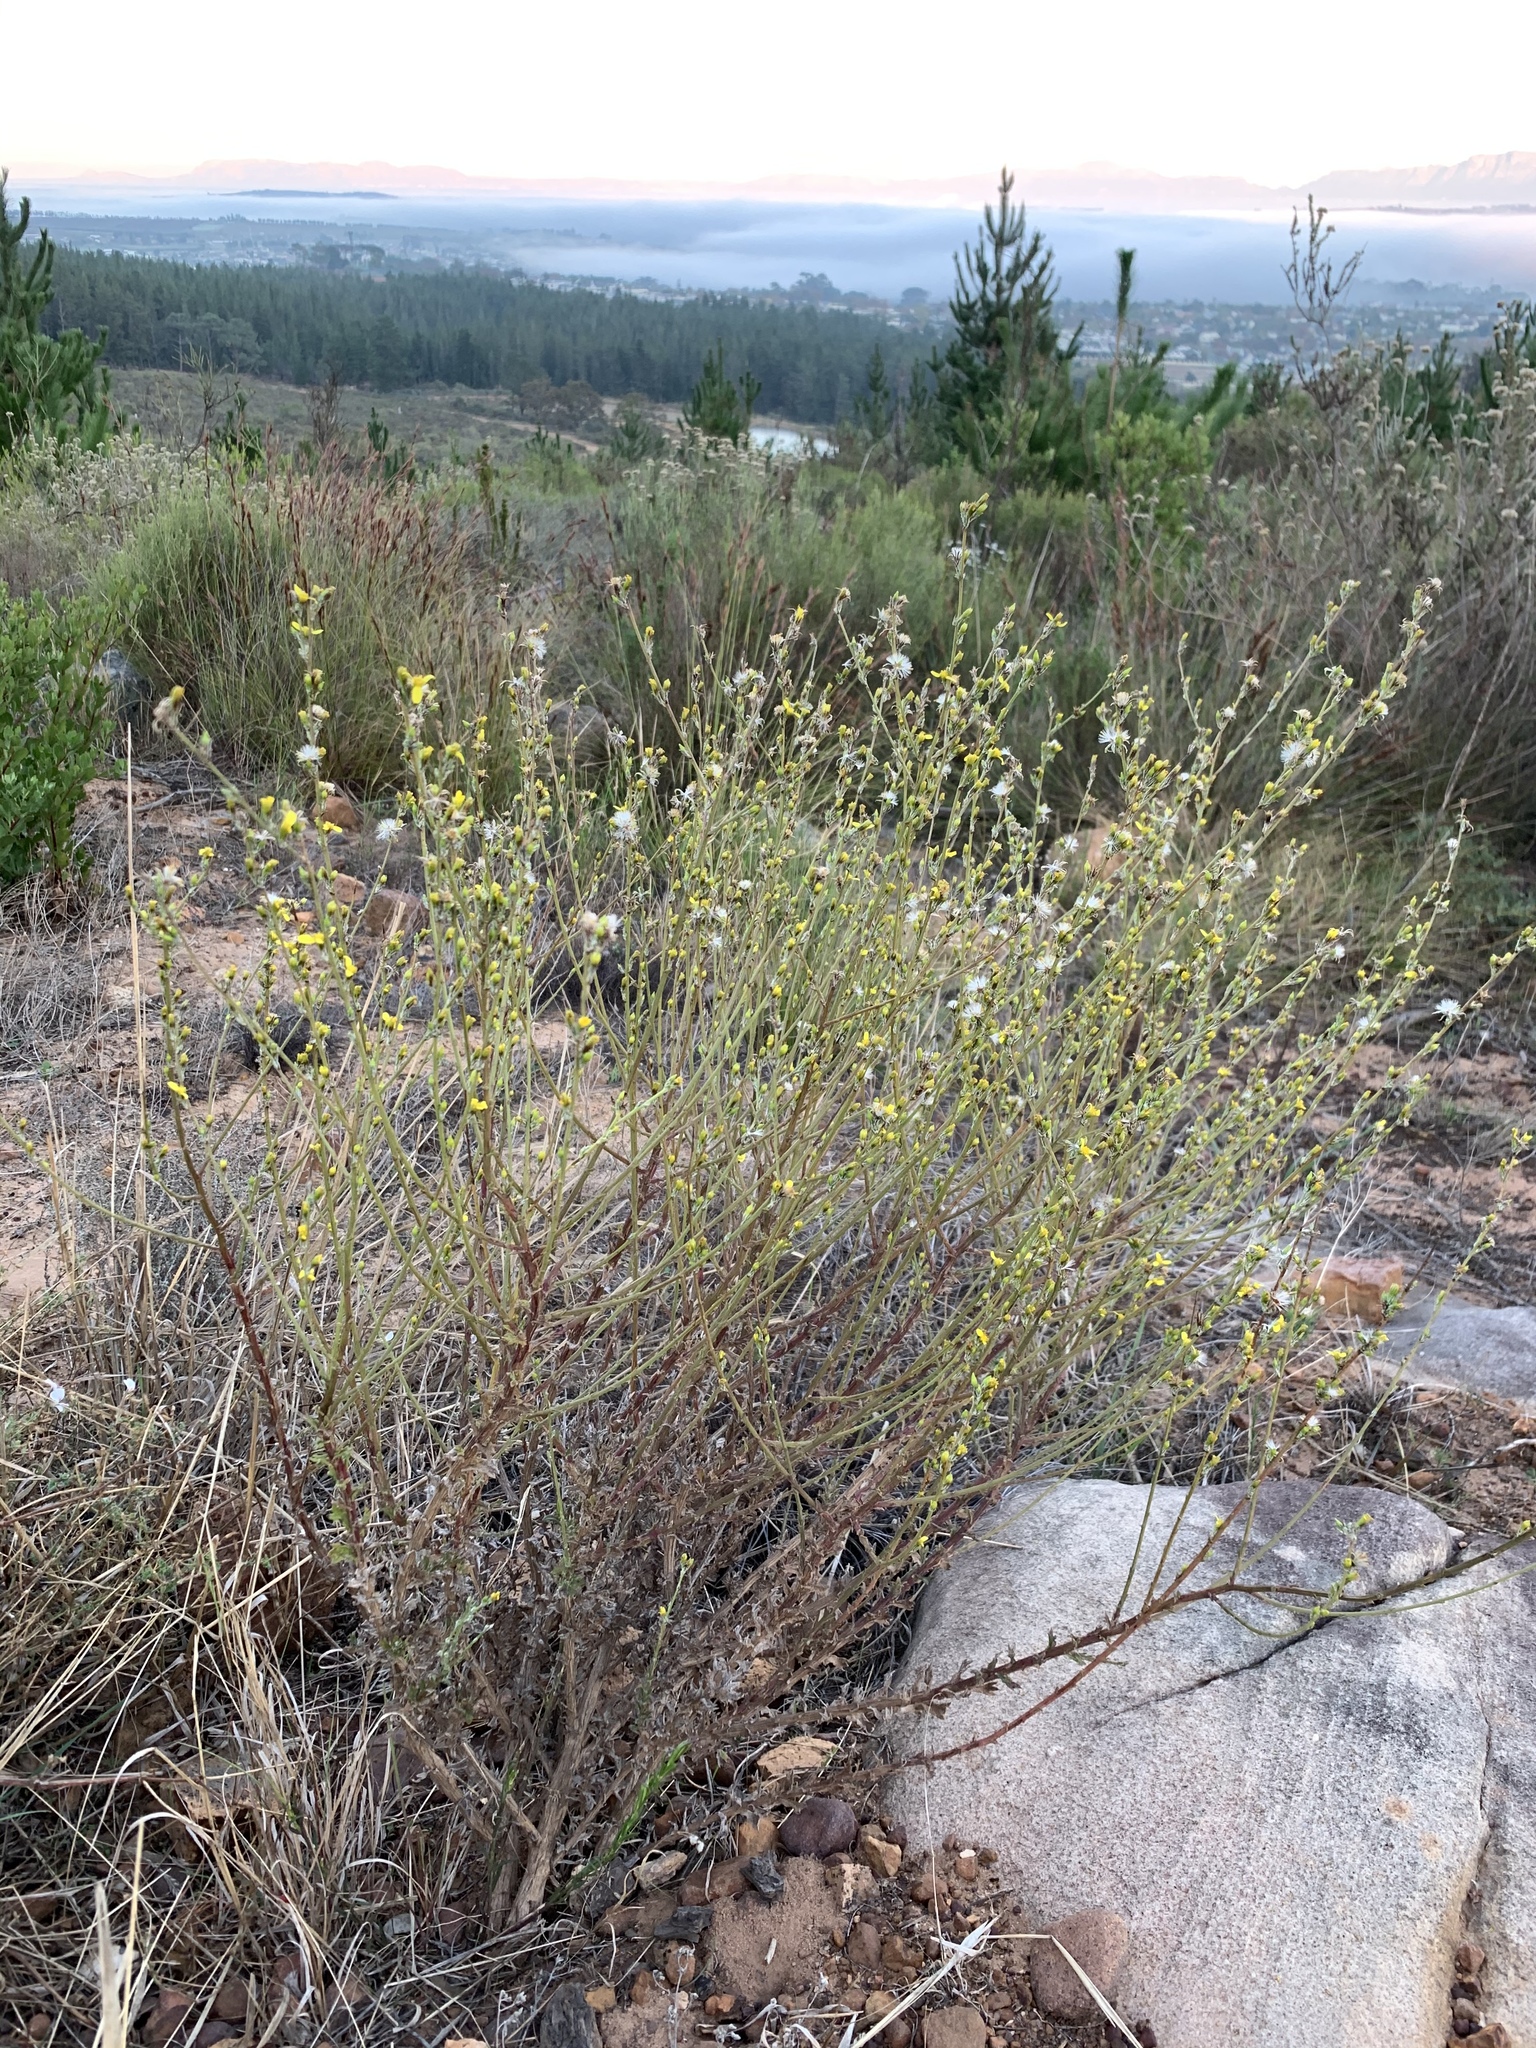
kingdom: Plantae
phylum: Tracheophyta
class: Magnoliopsida
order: Asterales
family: Asteraceae
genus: Senecio
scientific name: Senecio pubigerus
